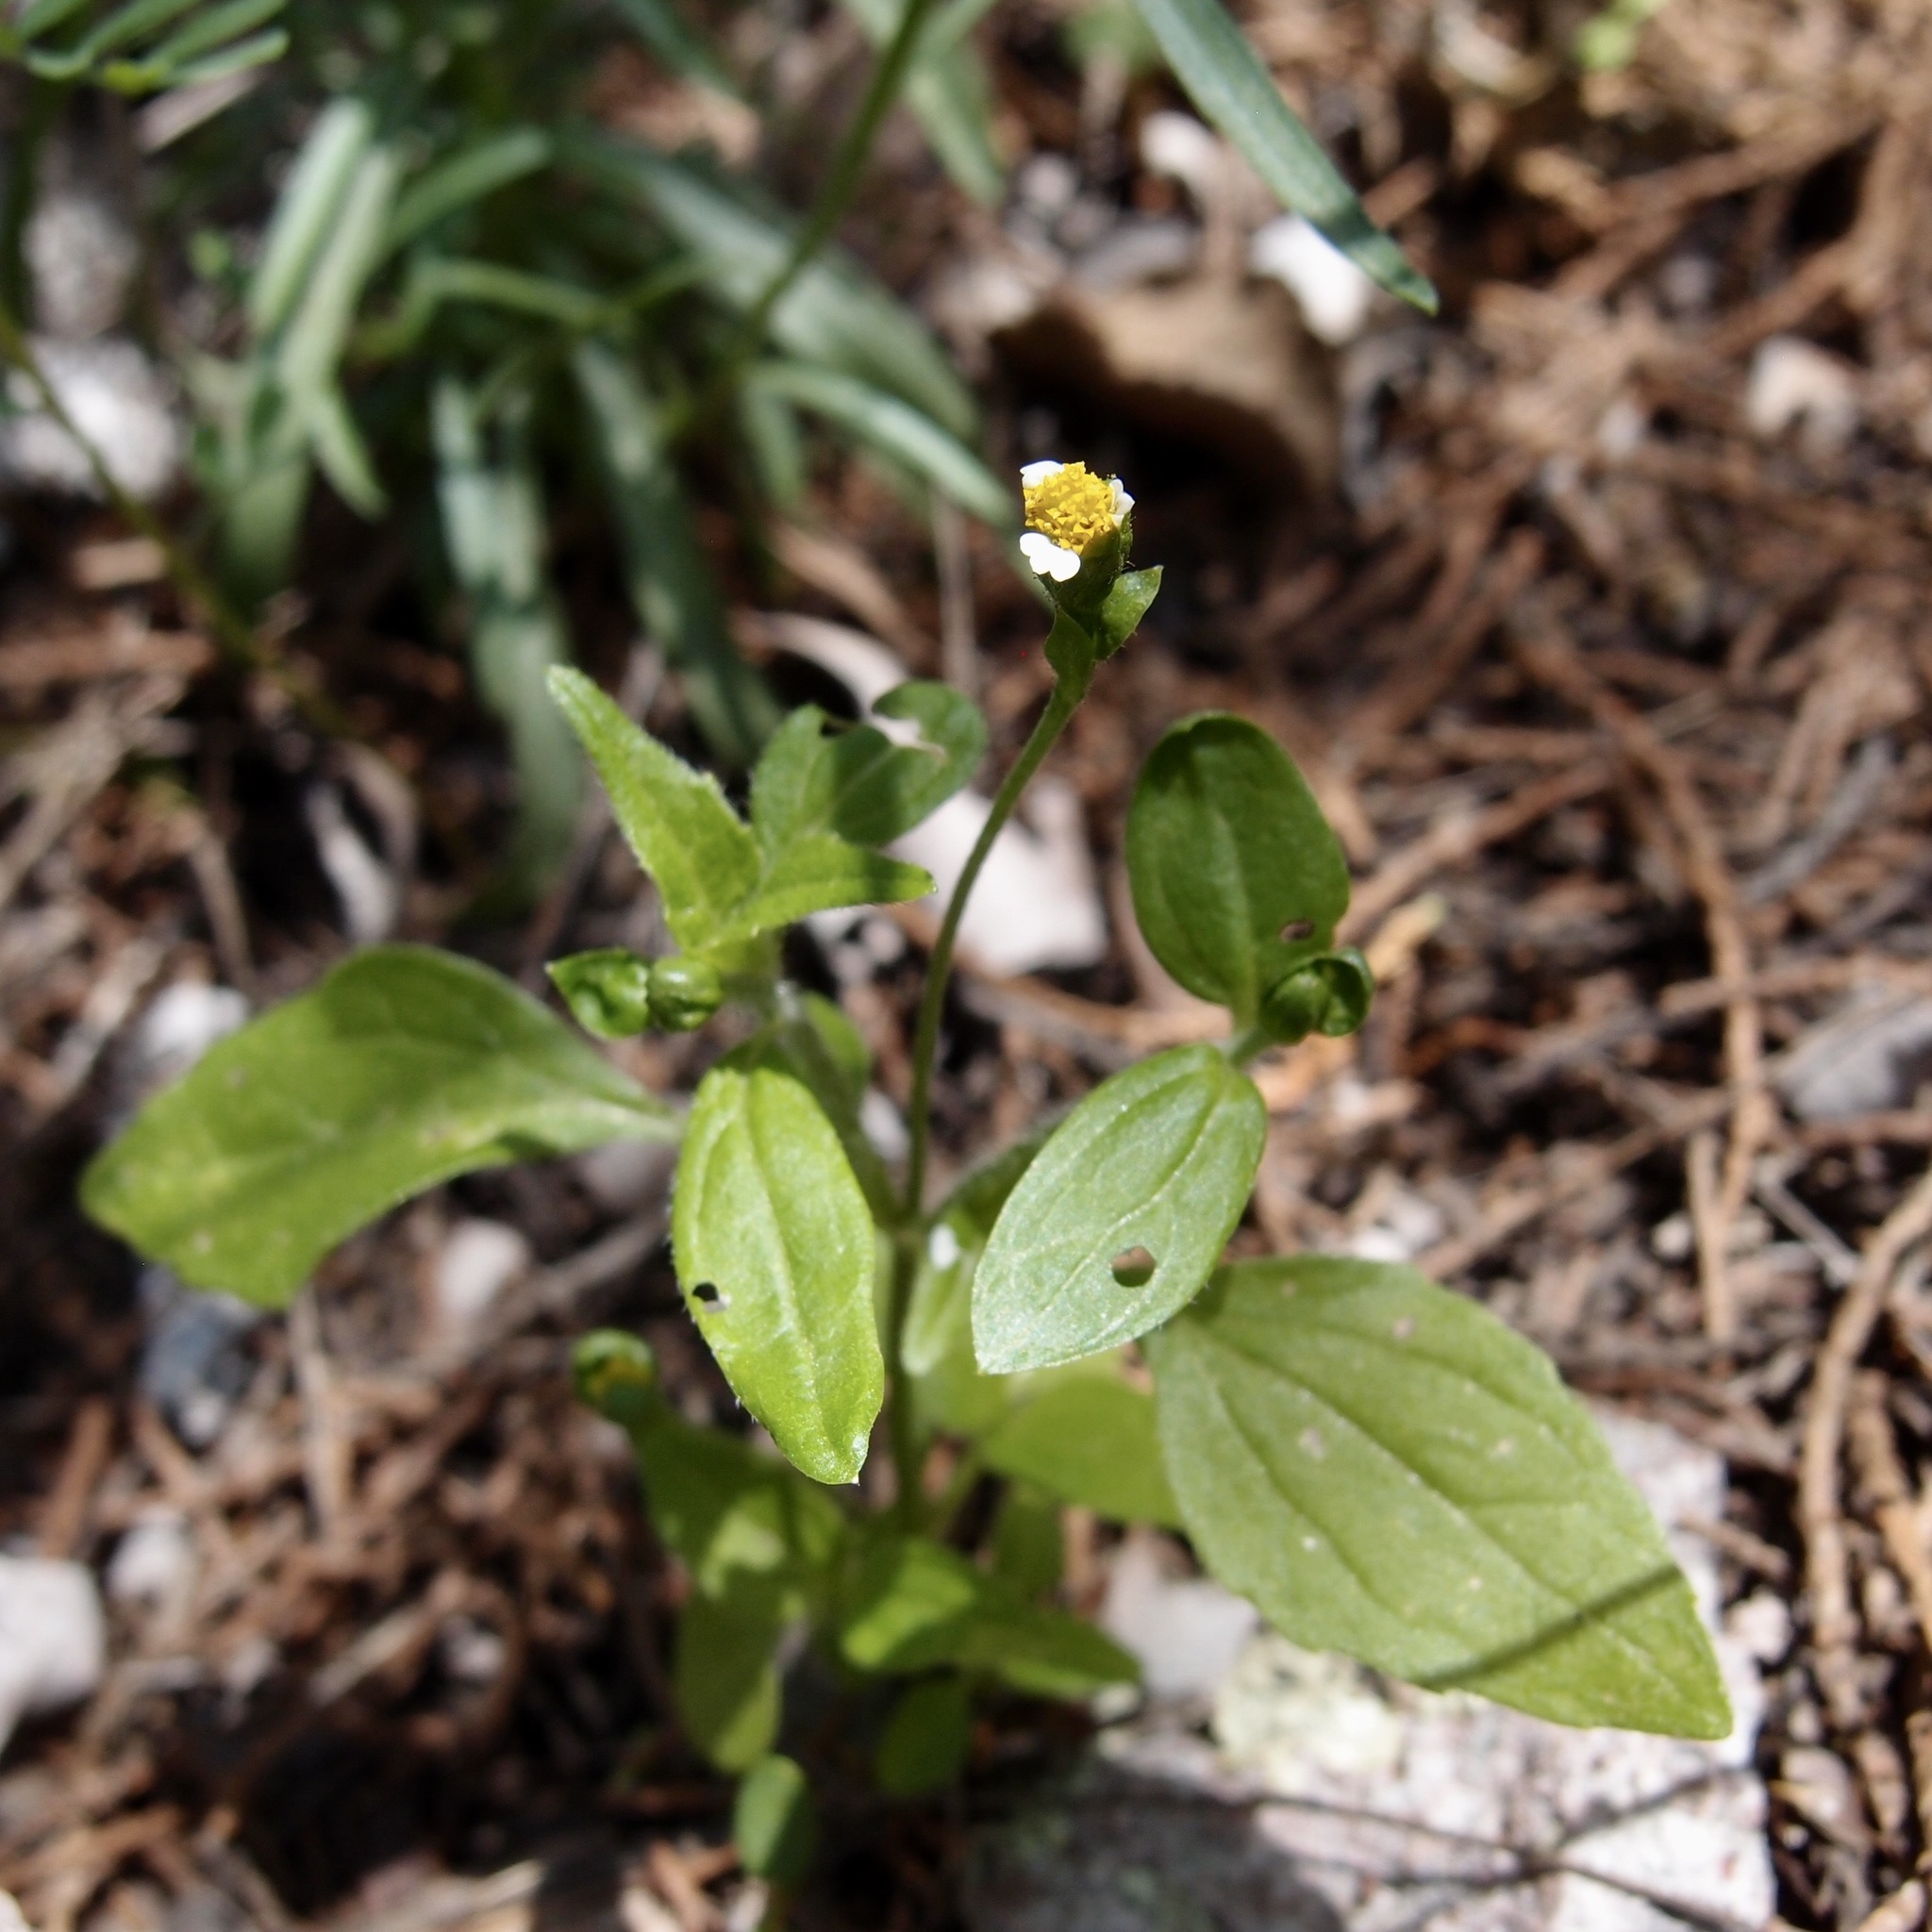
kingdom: Plantae
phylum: Tracheophyta
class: Magnoliopsida
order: Asterales
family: Asteraceae
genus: Galinsoga
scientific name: Galinsoga parviflora
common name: Gallant soldier
